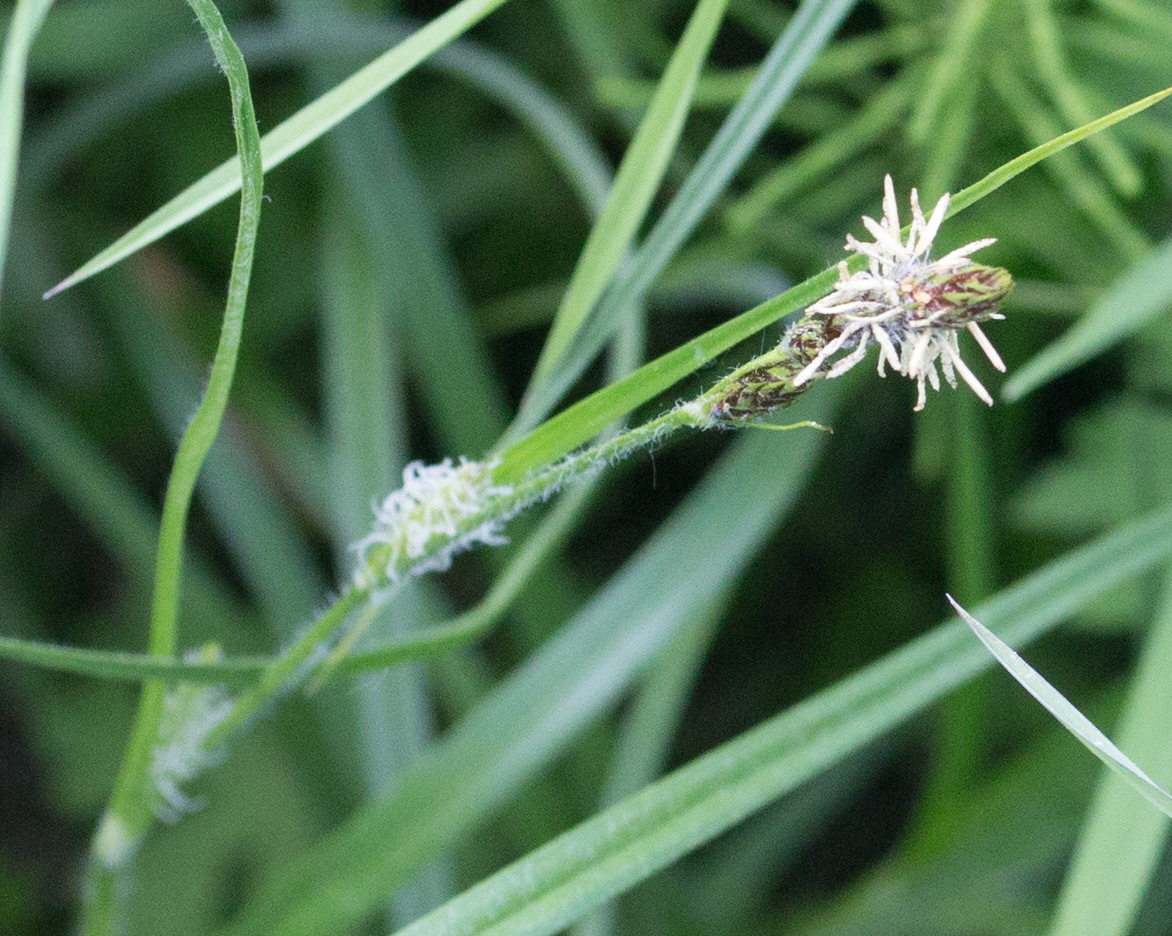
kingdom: Plantae
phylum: Tracheophyta
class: Liliopsida
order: Poales
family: Cyperaceae
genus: Carex
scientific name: Carex hirta
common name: Hairy sedge
